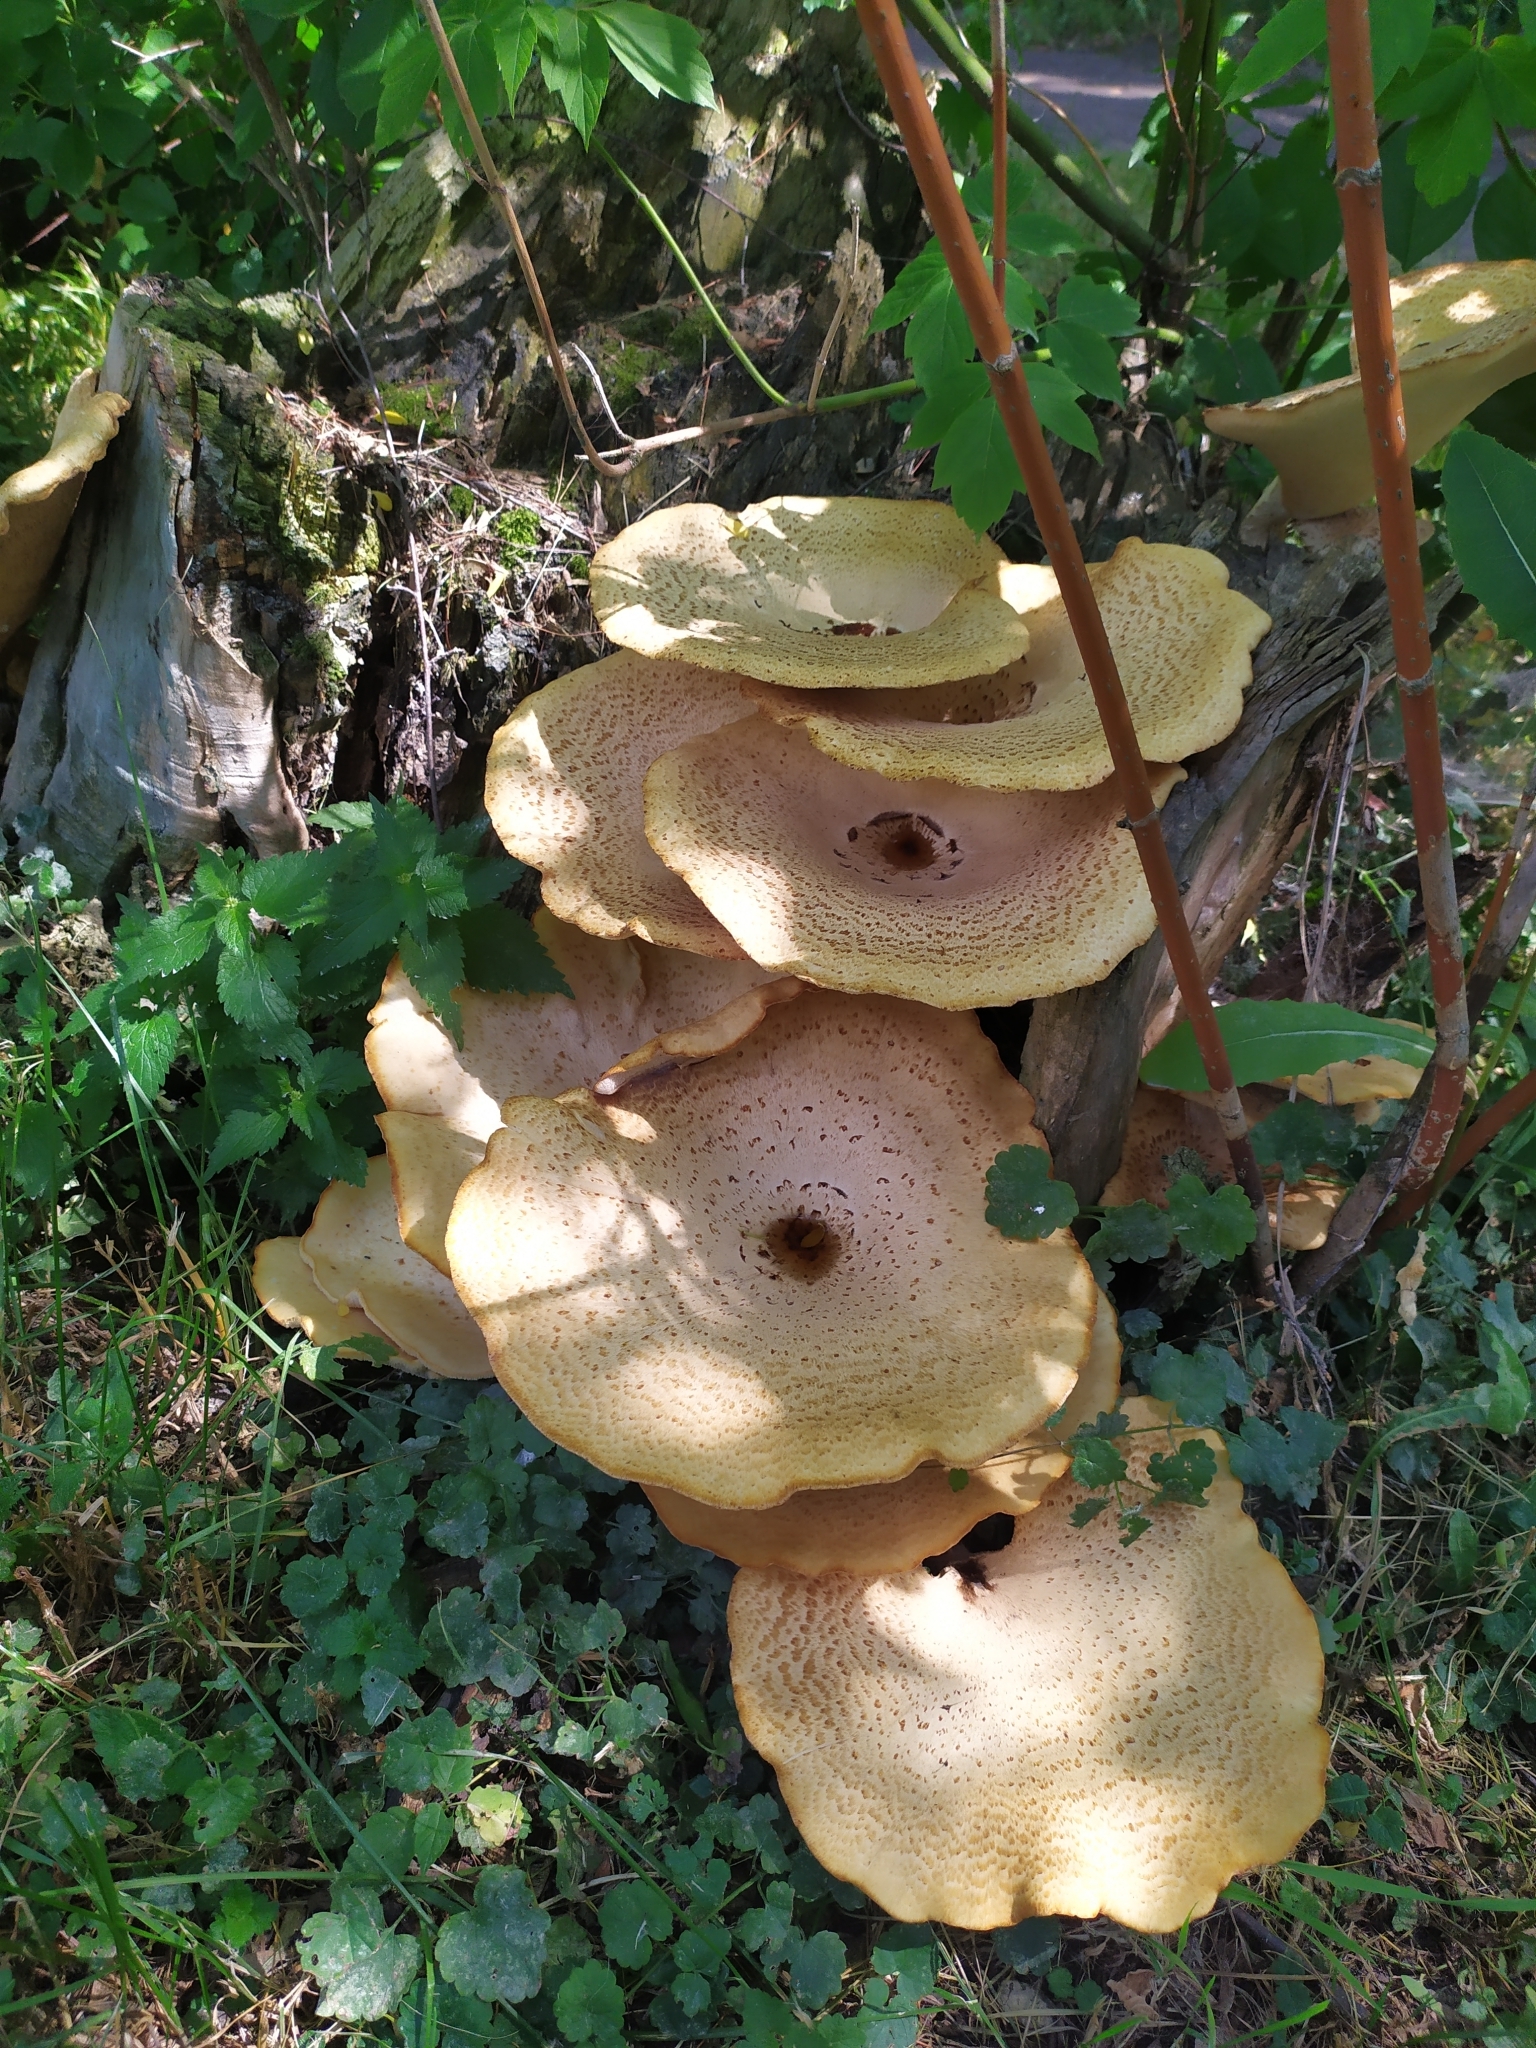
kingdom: Fungi
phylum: Basidiomycota
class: Agaricomycetes
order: Polyporales
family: Polyporaceae
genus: Cerioporus
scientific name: Cerioporus squamosus
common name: Dryad's saddle
